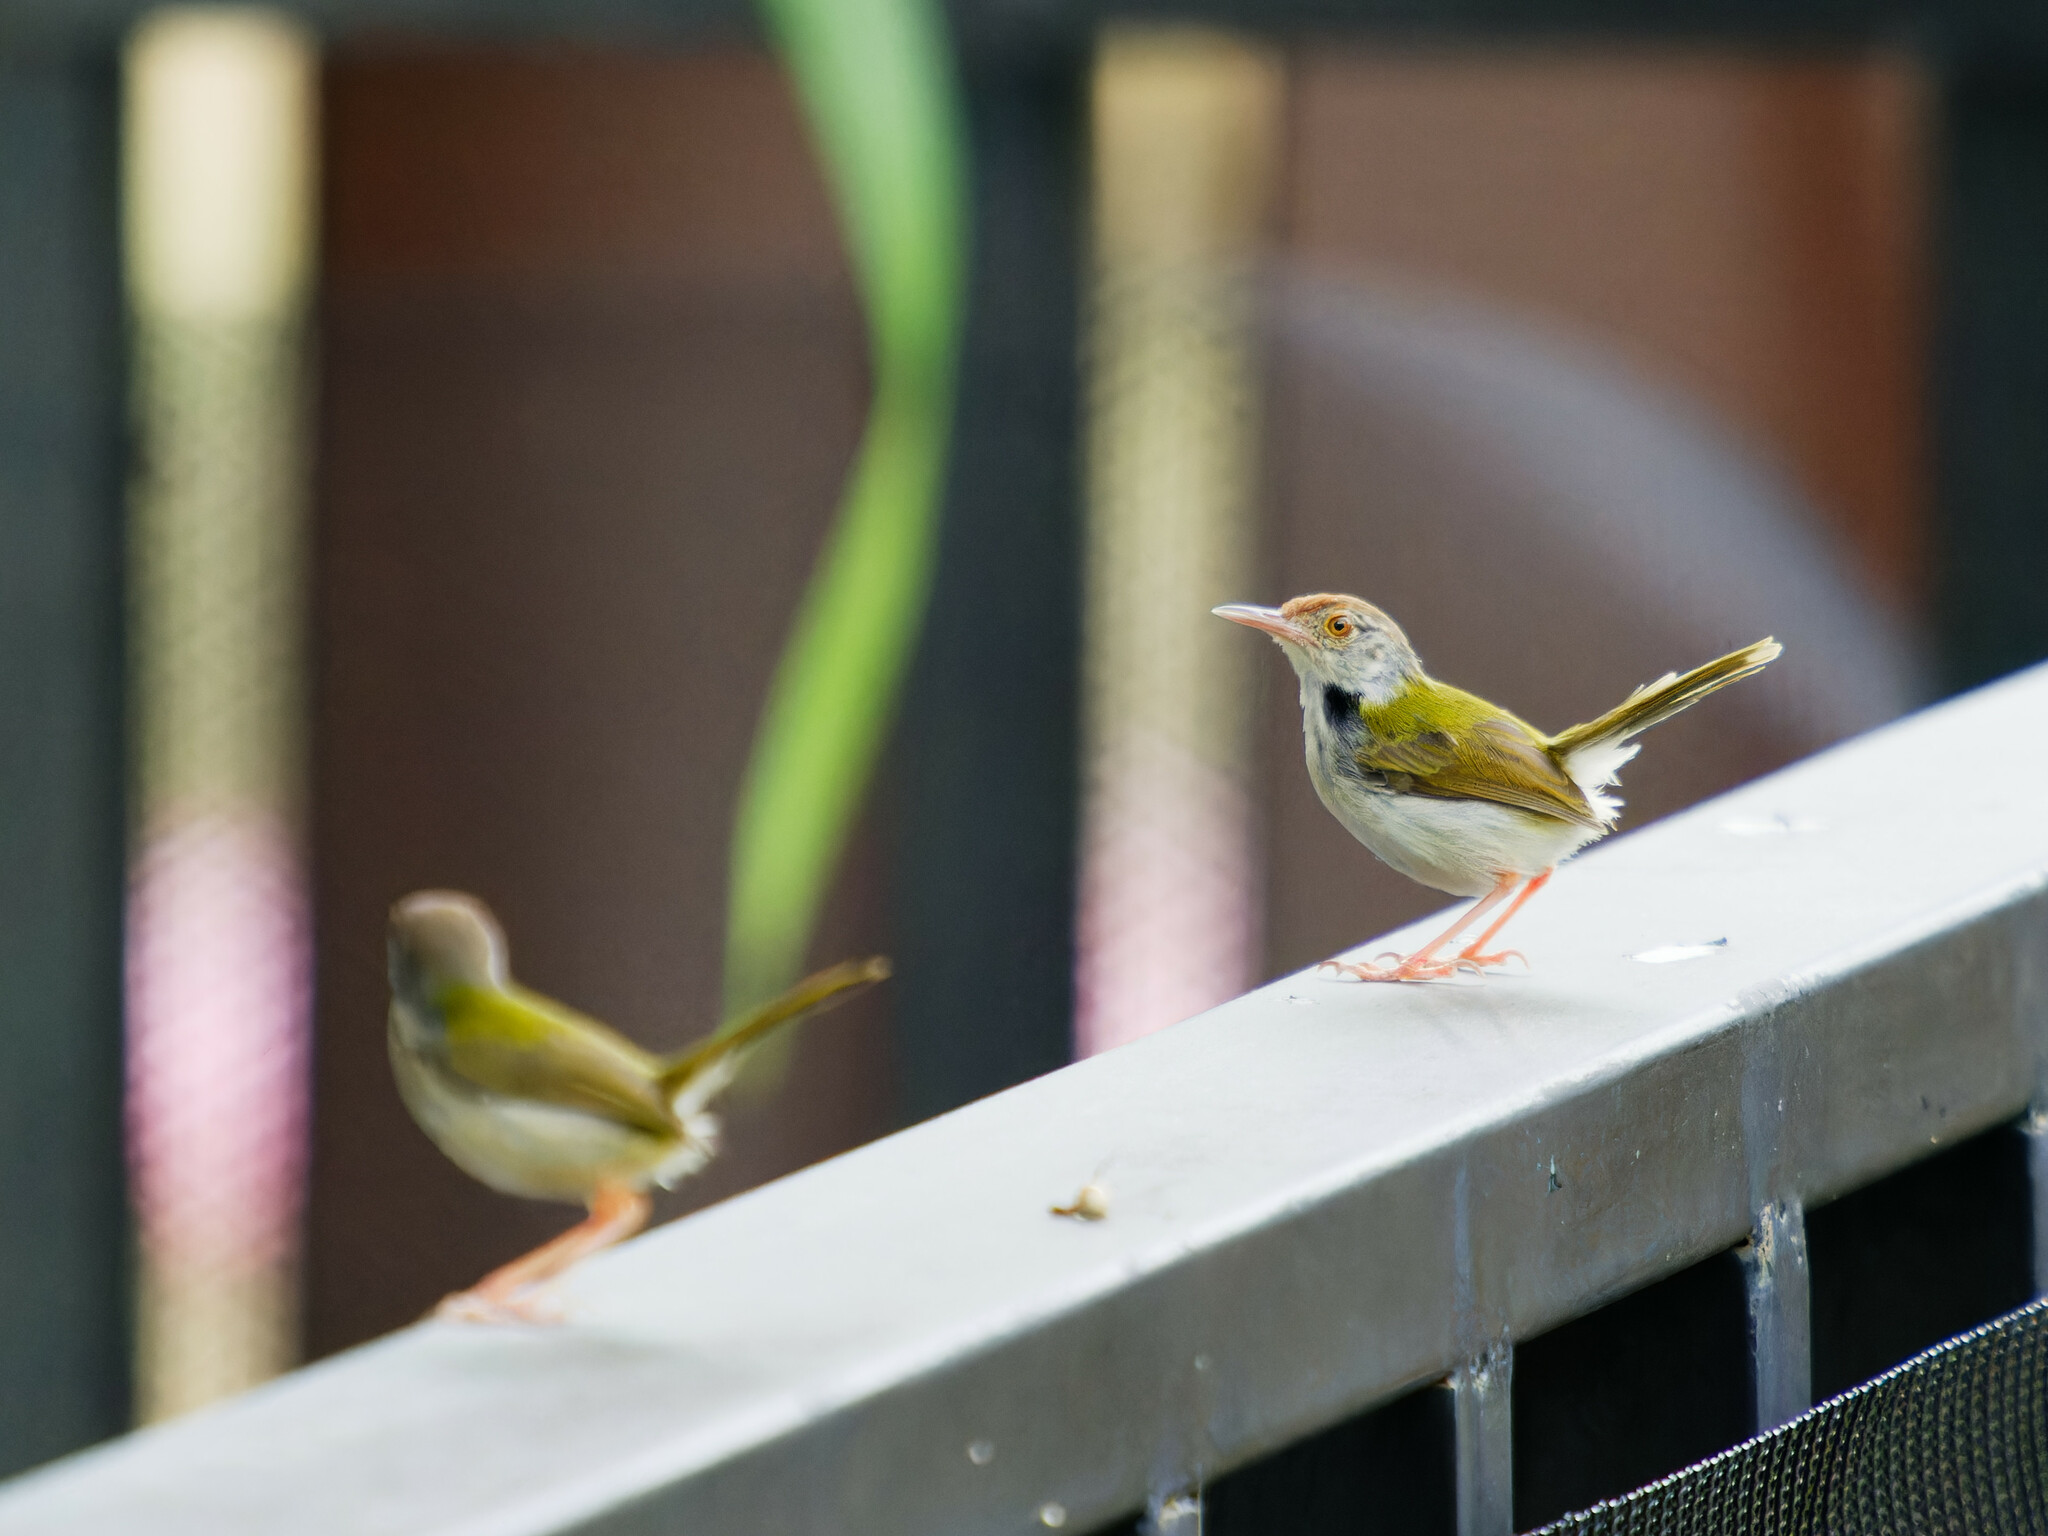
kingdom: Animalia
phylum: Chordata
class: Aves
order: Passeriformes
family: Cisticolidae
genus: Orthotomus
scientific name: Orthotomus sutorius
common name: Common tailorbird
